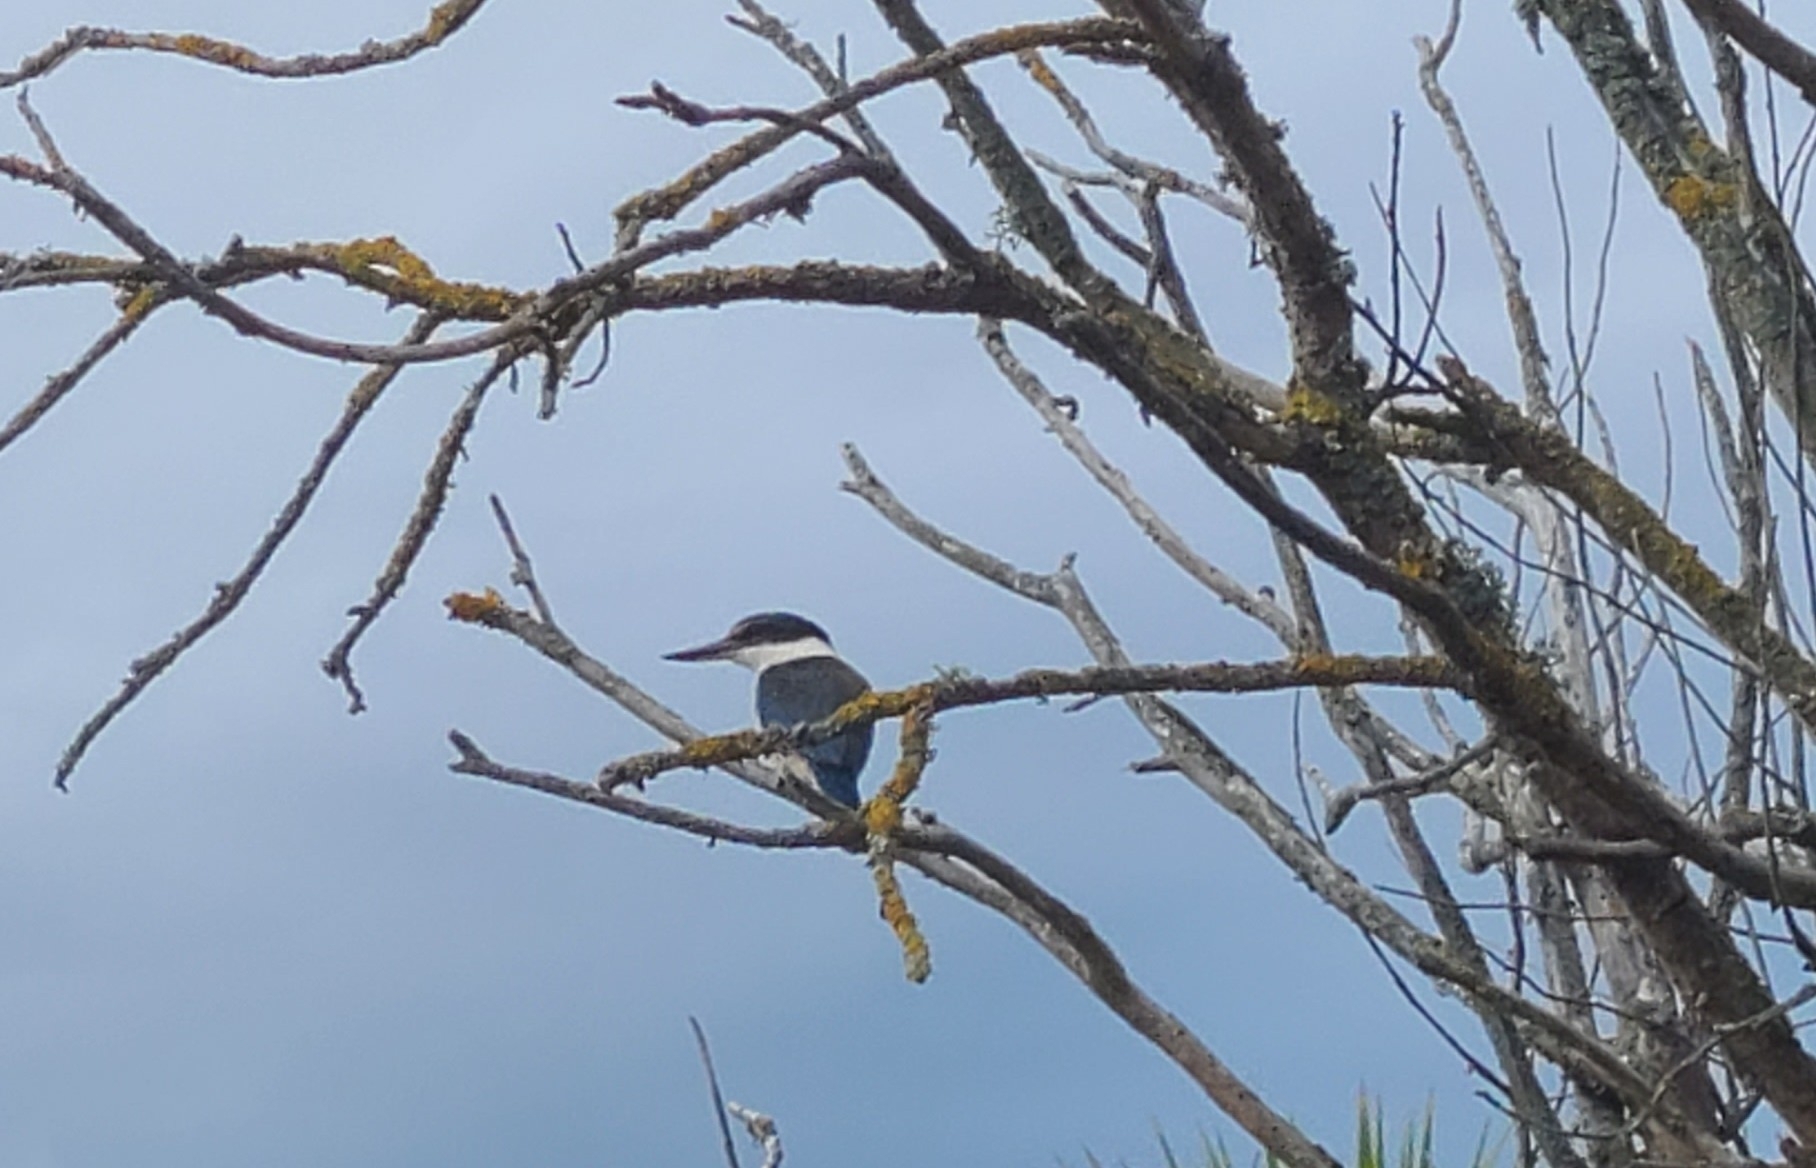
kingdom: Animalia
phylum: Chordata
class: Aves
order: Coraciiformes
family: Alcedinidae
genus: Todiramphus
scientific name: Todiramphus sanctus
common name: Sacred kingfisher
